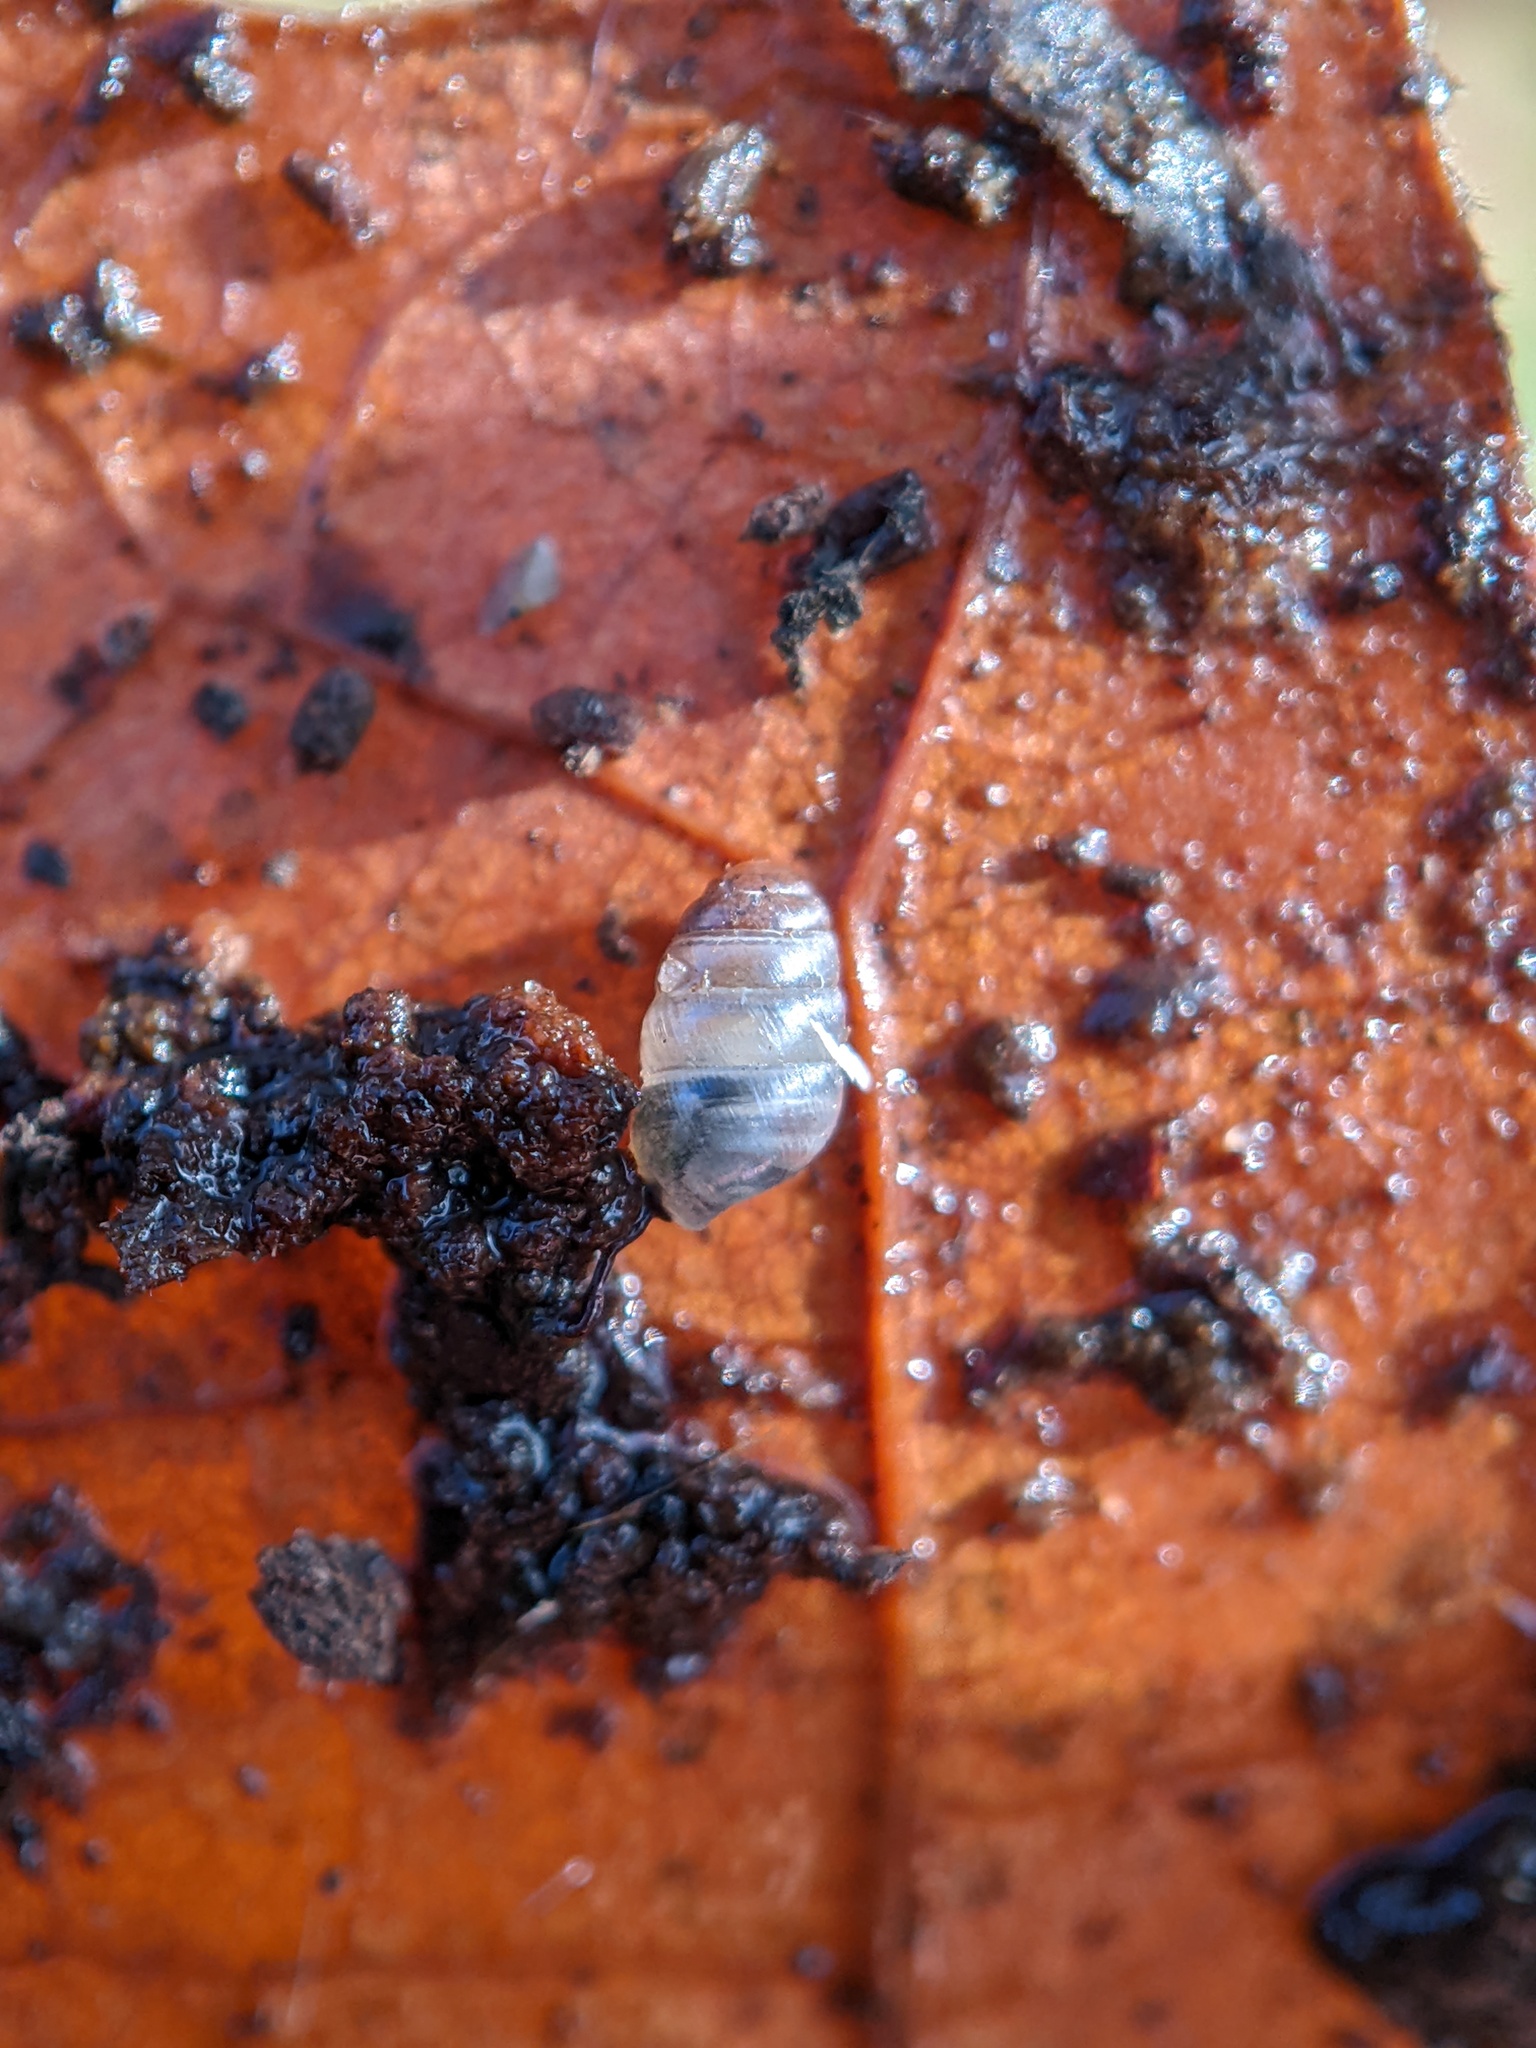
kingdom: Animalia
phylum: Mollusca
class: Gastropoda
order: Stylommatophora
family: Lauriidae
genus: Lauria
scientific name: Lauria cylindracea
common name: Common chrysalis snail
